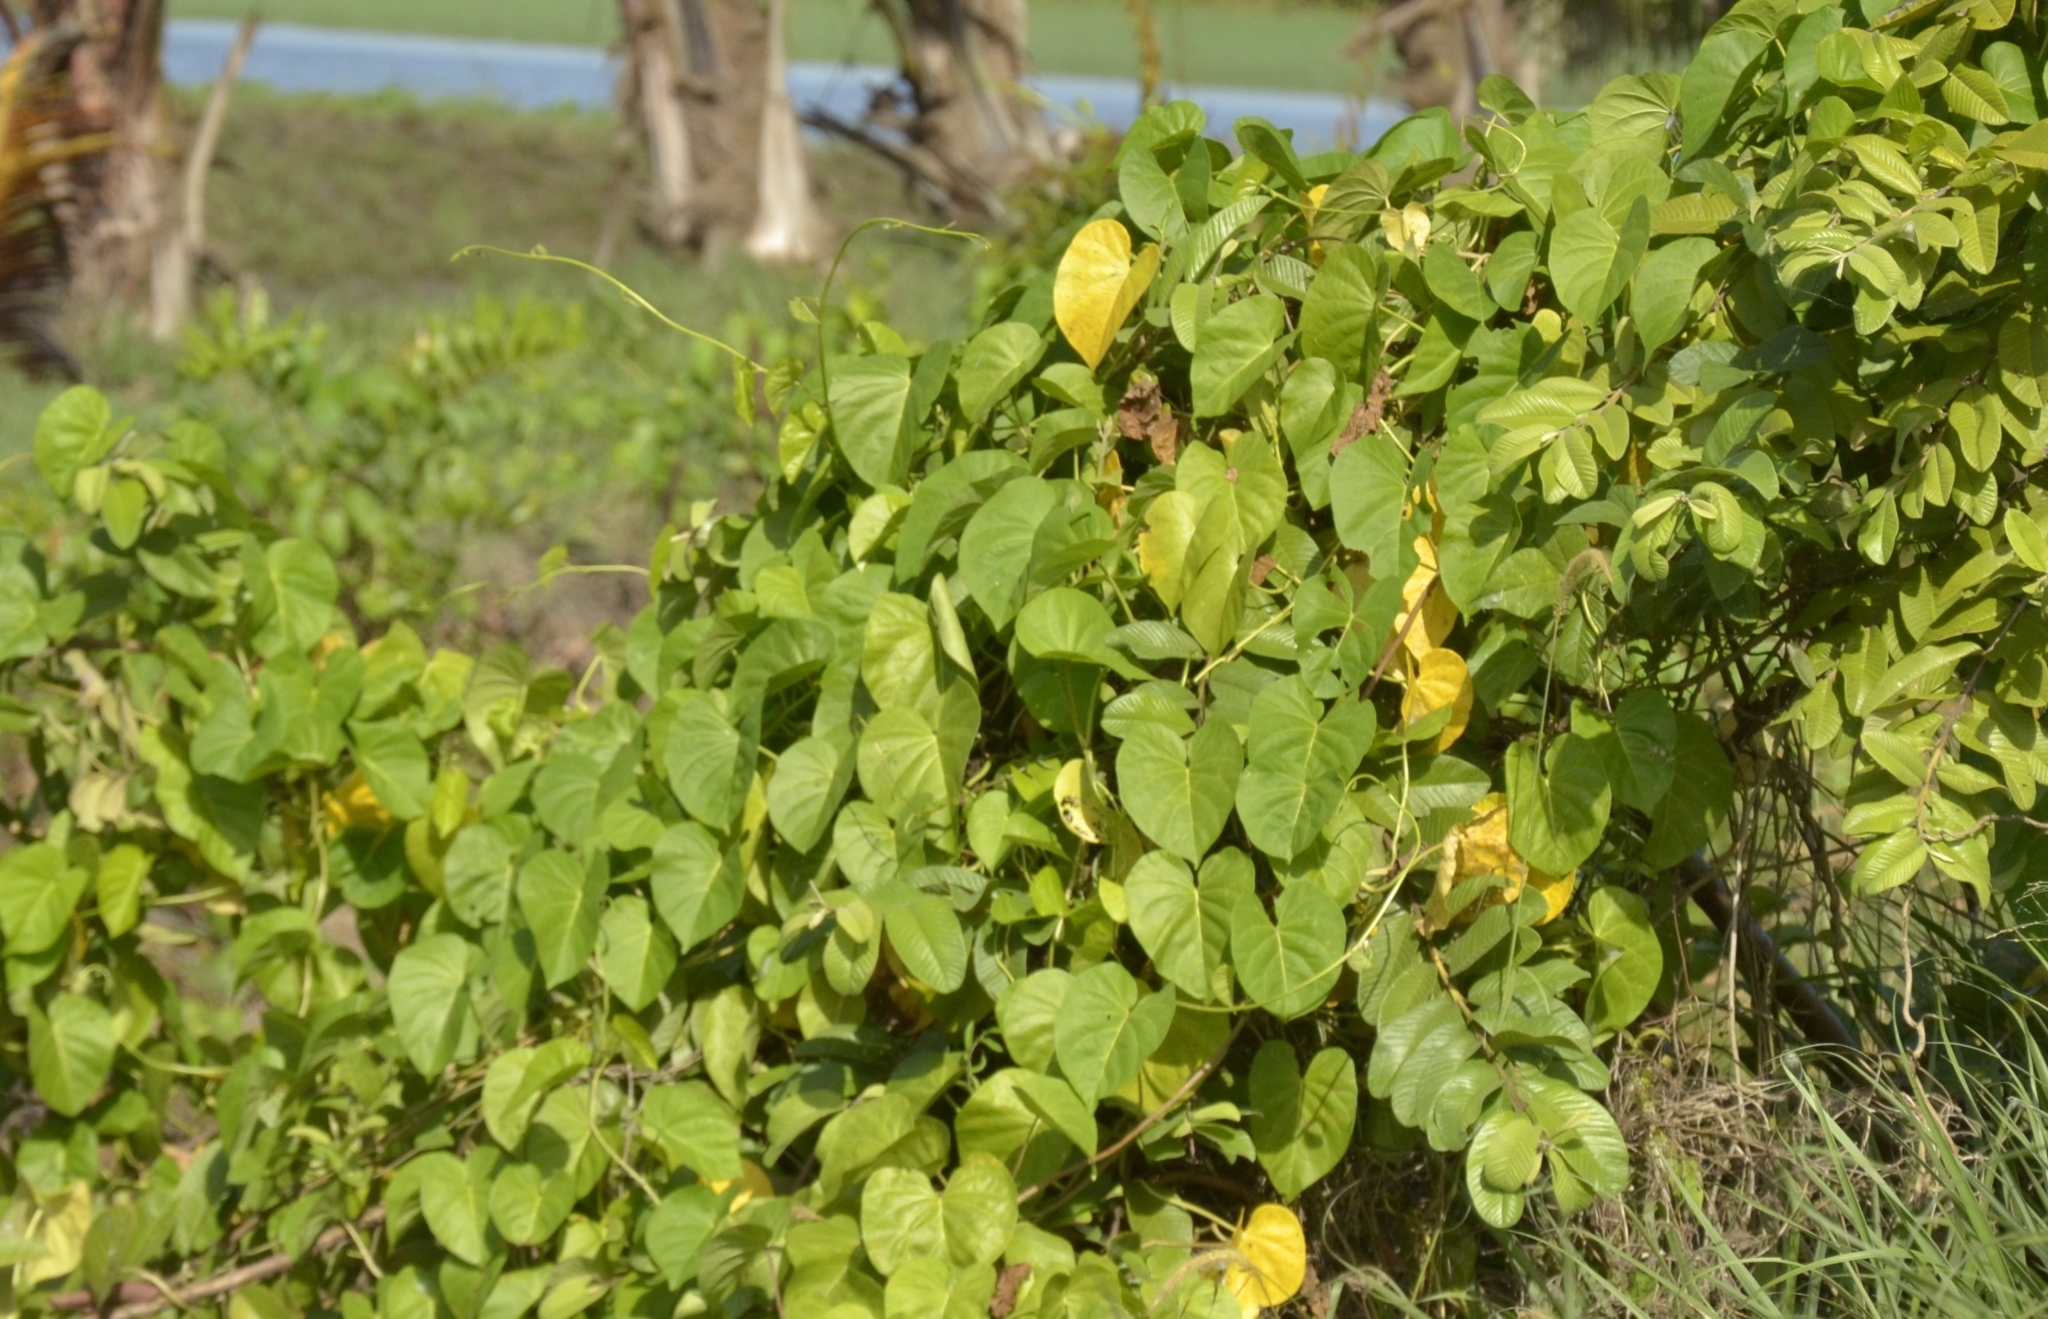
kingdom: Plantae
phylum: Tracheophyta
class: Magnoliopsida
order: Solanales
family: Convolvulaceae
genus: Ipomoea
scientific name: Ipomoea violacea
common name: Beach moonflower
